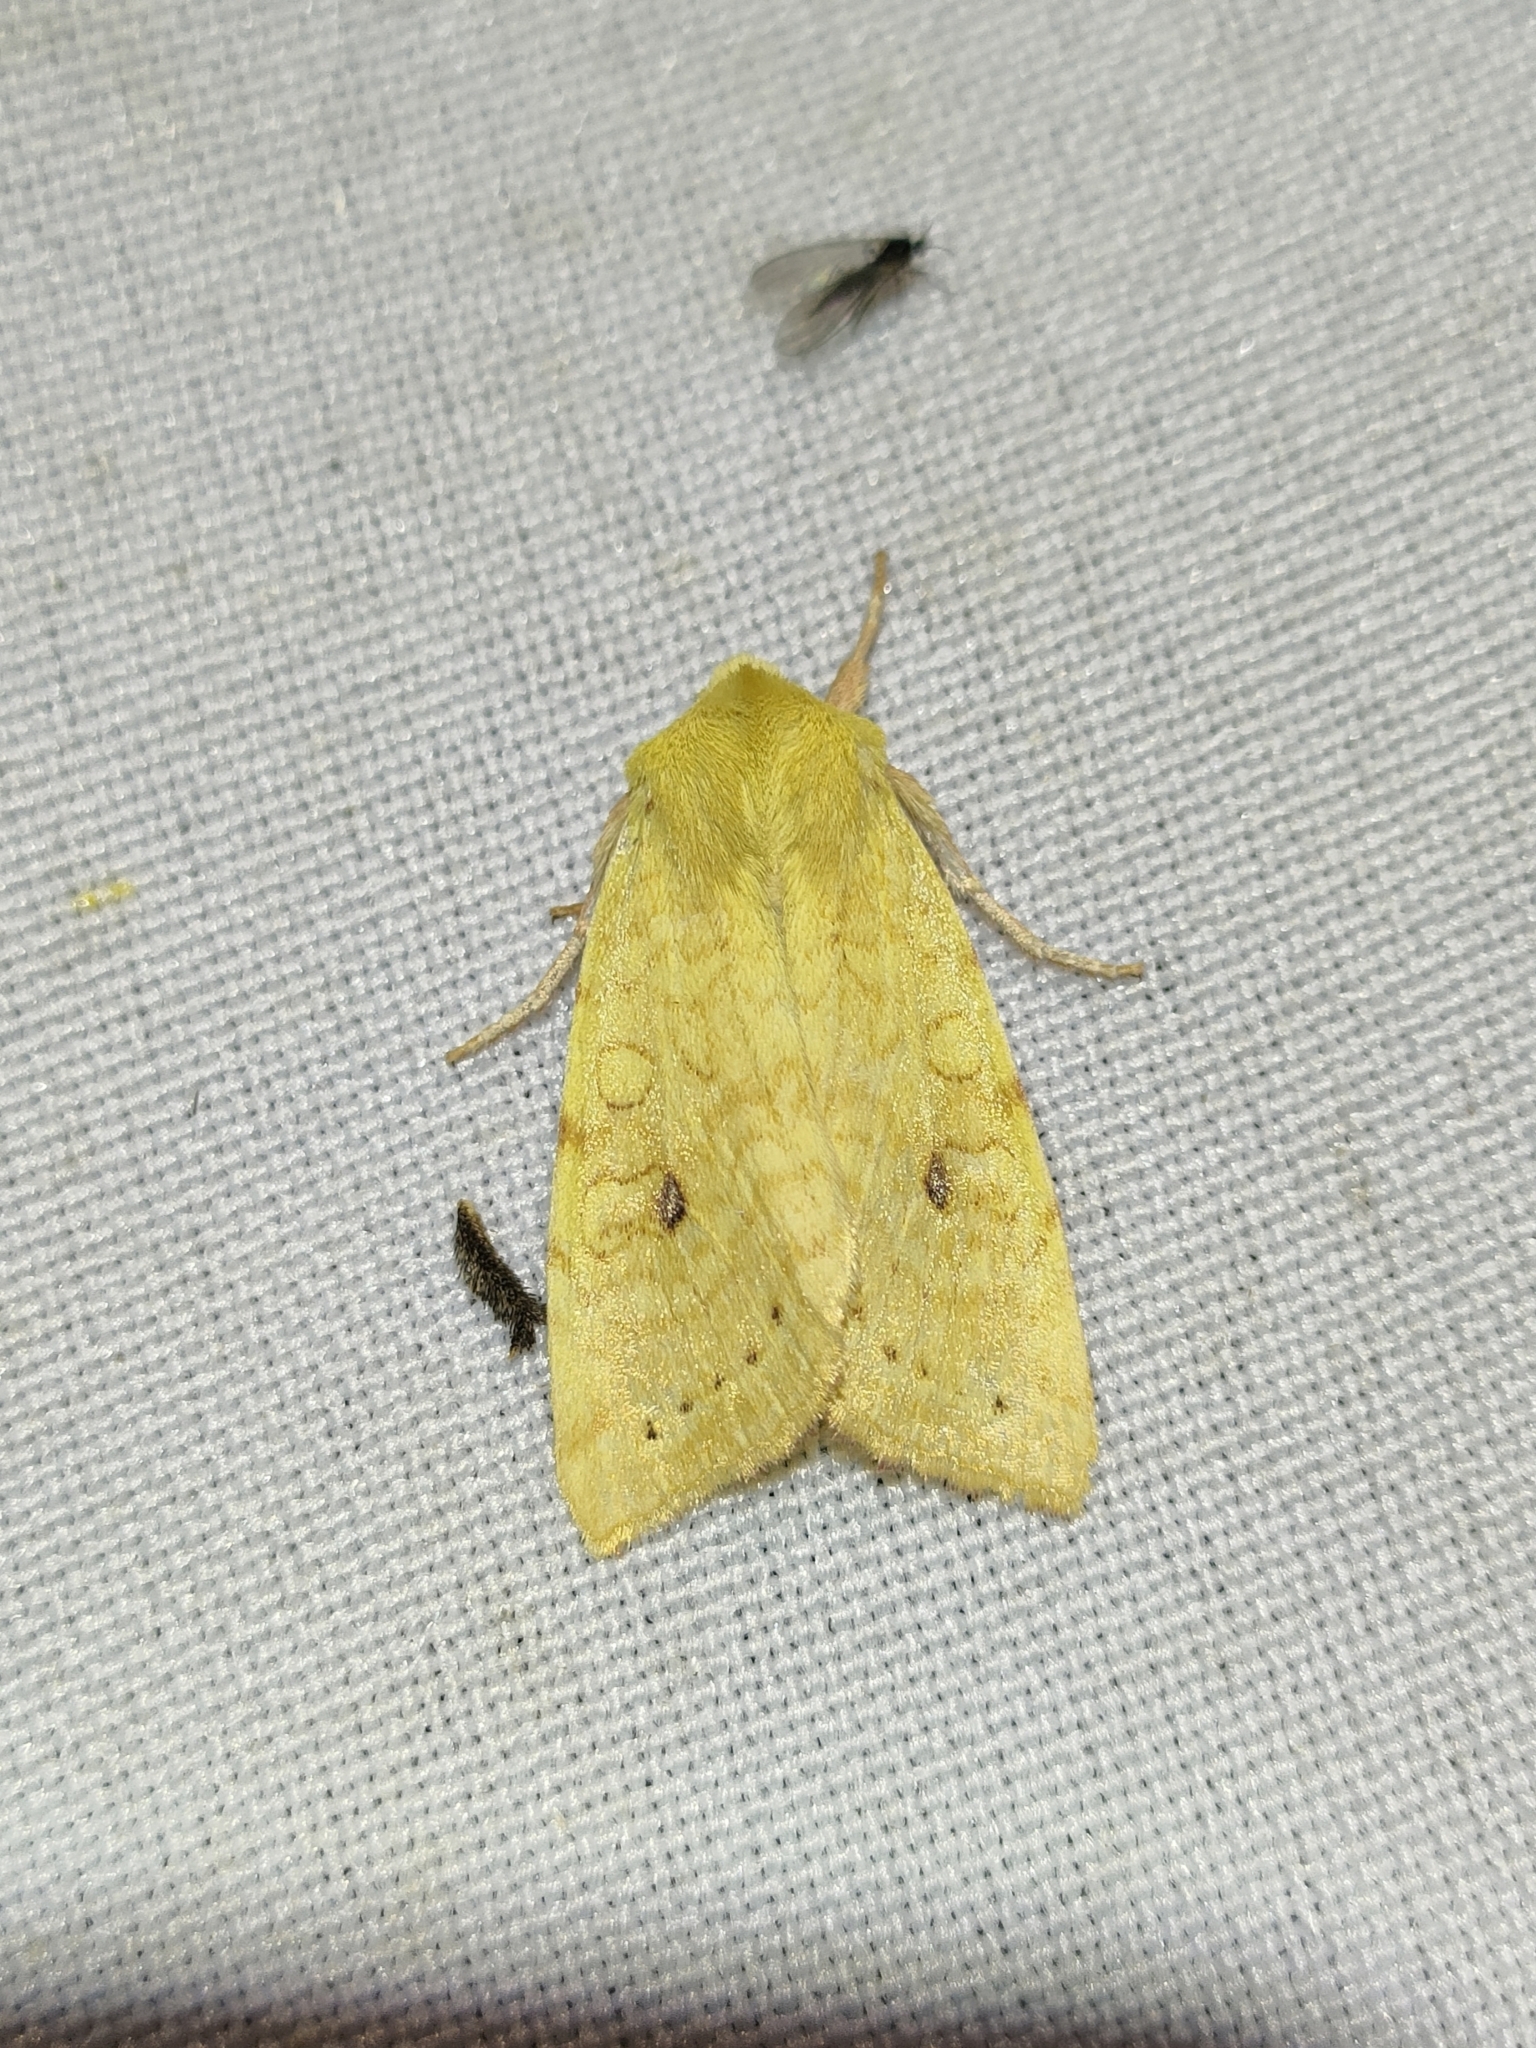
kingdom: Animalia
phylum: Arthropoda
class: Insecta
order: Lepidoptera
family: Noctuidae
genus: Xanthia
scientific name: Xanthia icteritia
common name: The sallow
